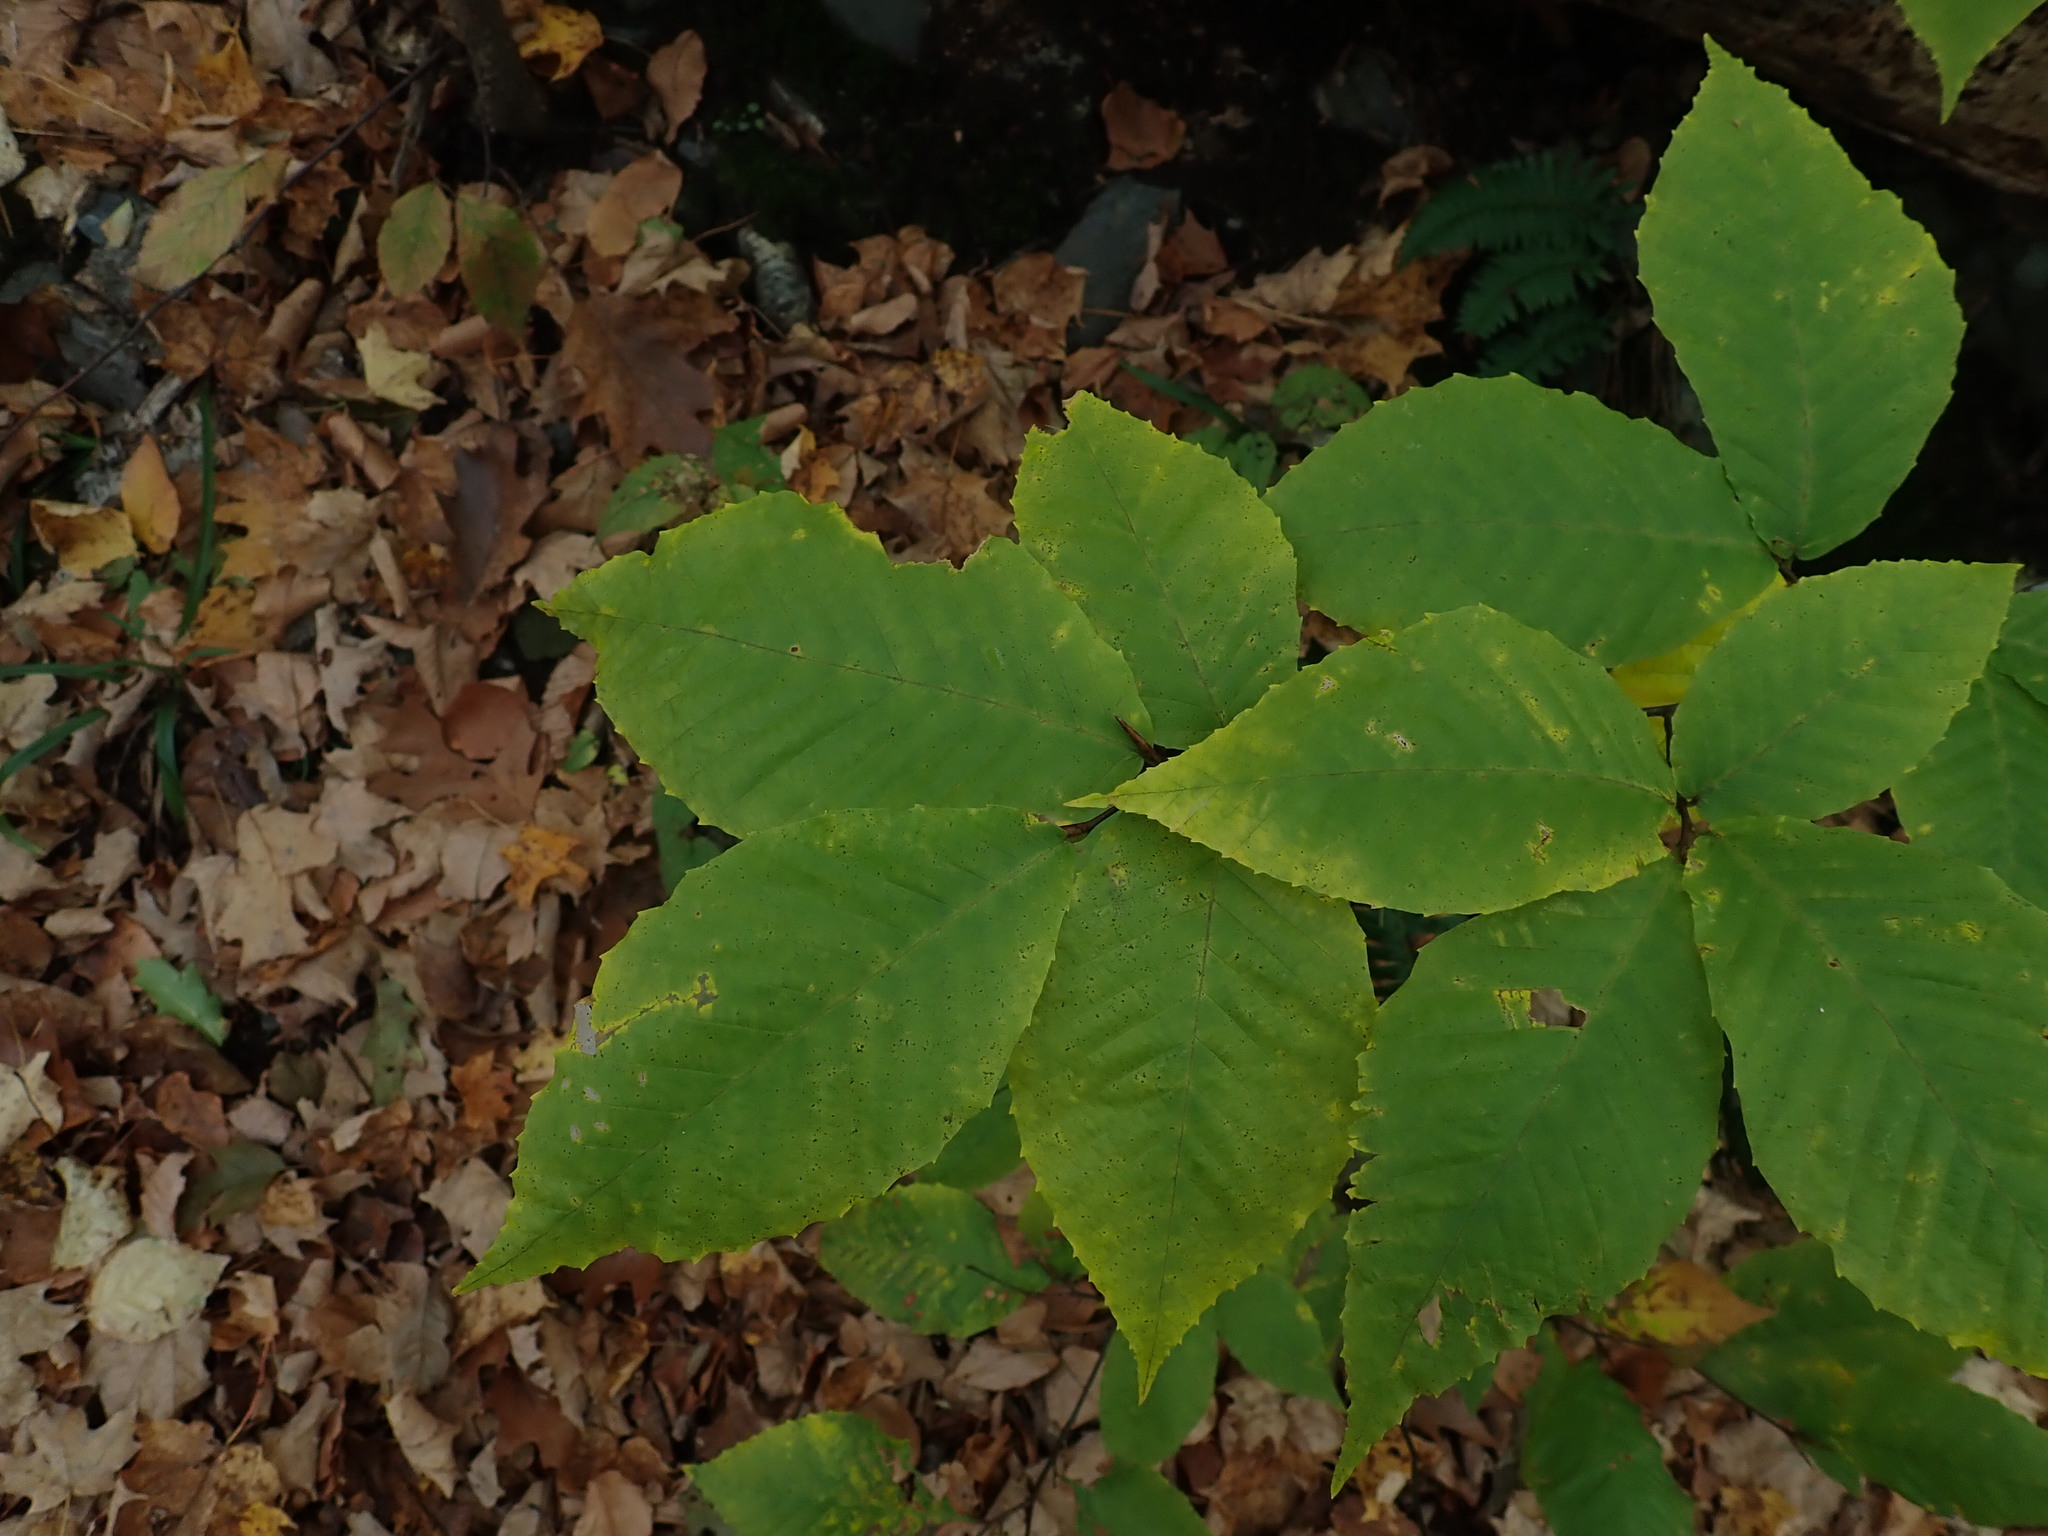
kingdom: Plantae
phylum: Tracheophyta
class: Magnoliopsida
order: Fagales
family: Fagaceae
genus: Fagus
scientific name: Fagus grandifolia
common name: American beech
